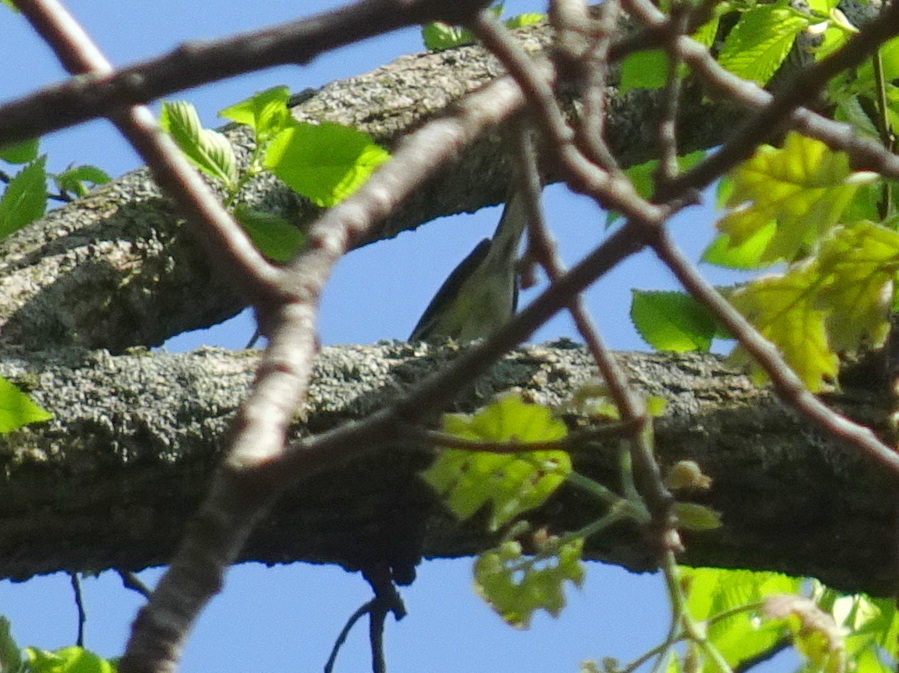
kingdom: Animalia
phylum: Chordata
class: Aves
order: Passeriformes
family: Parulidae
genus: Setophaga
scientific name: Setophaga virens
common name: Black-throated green warbler
